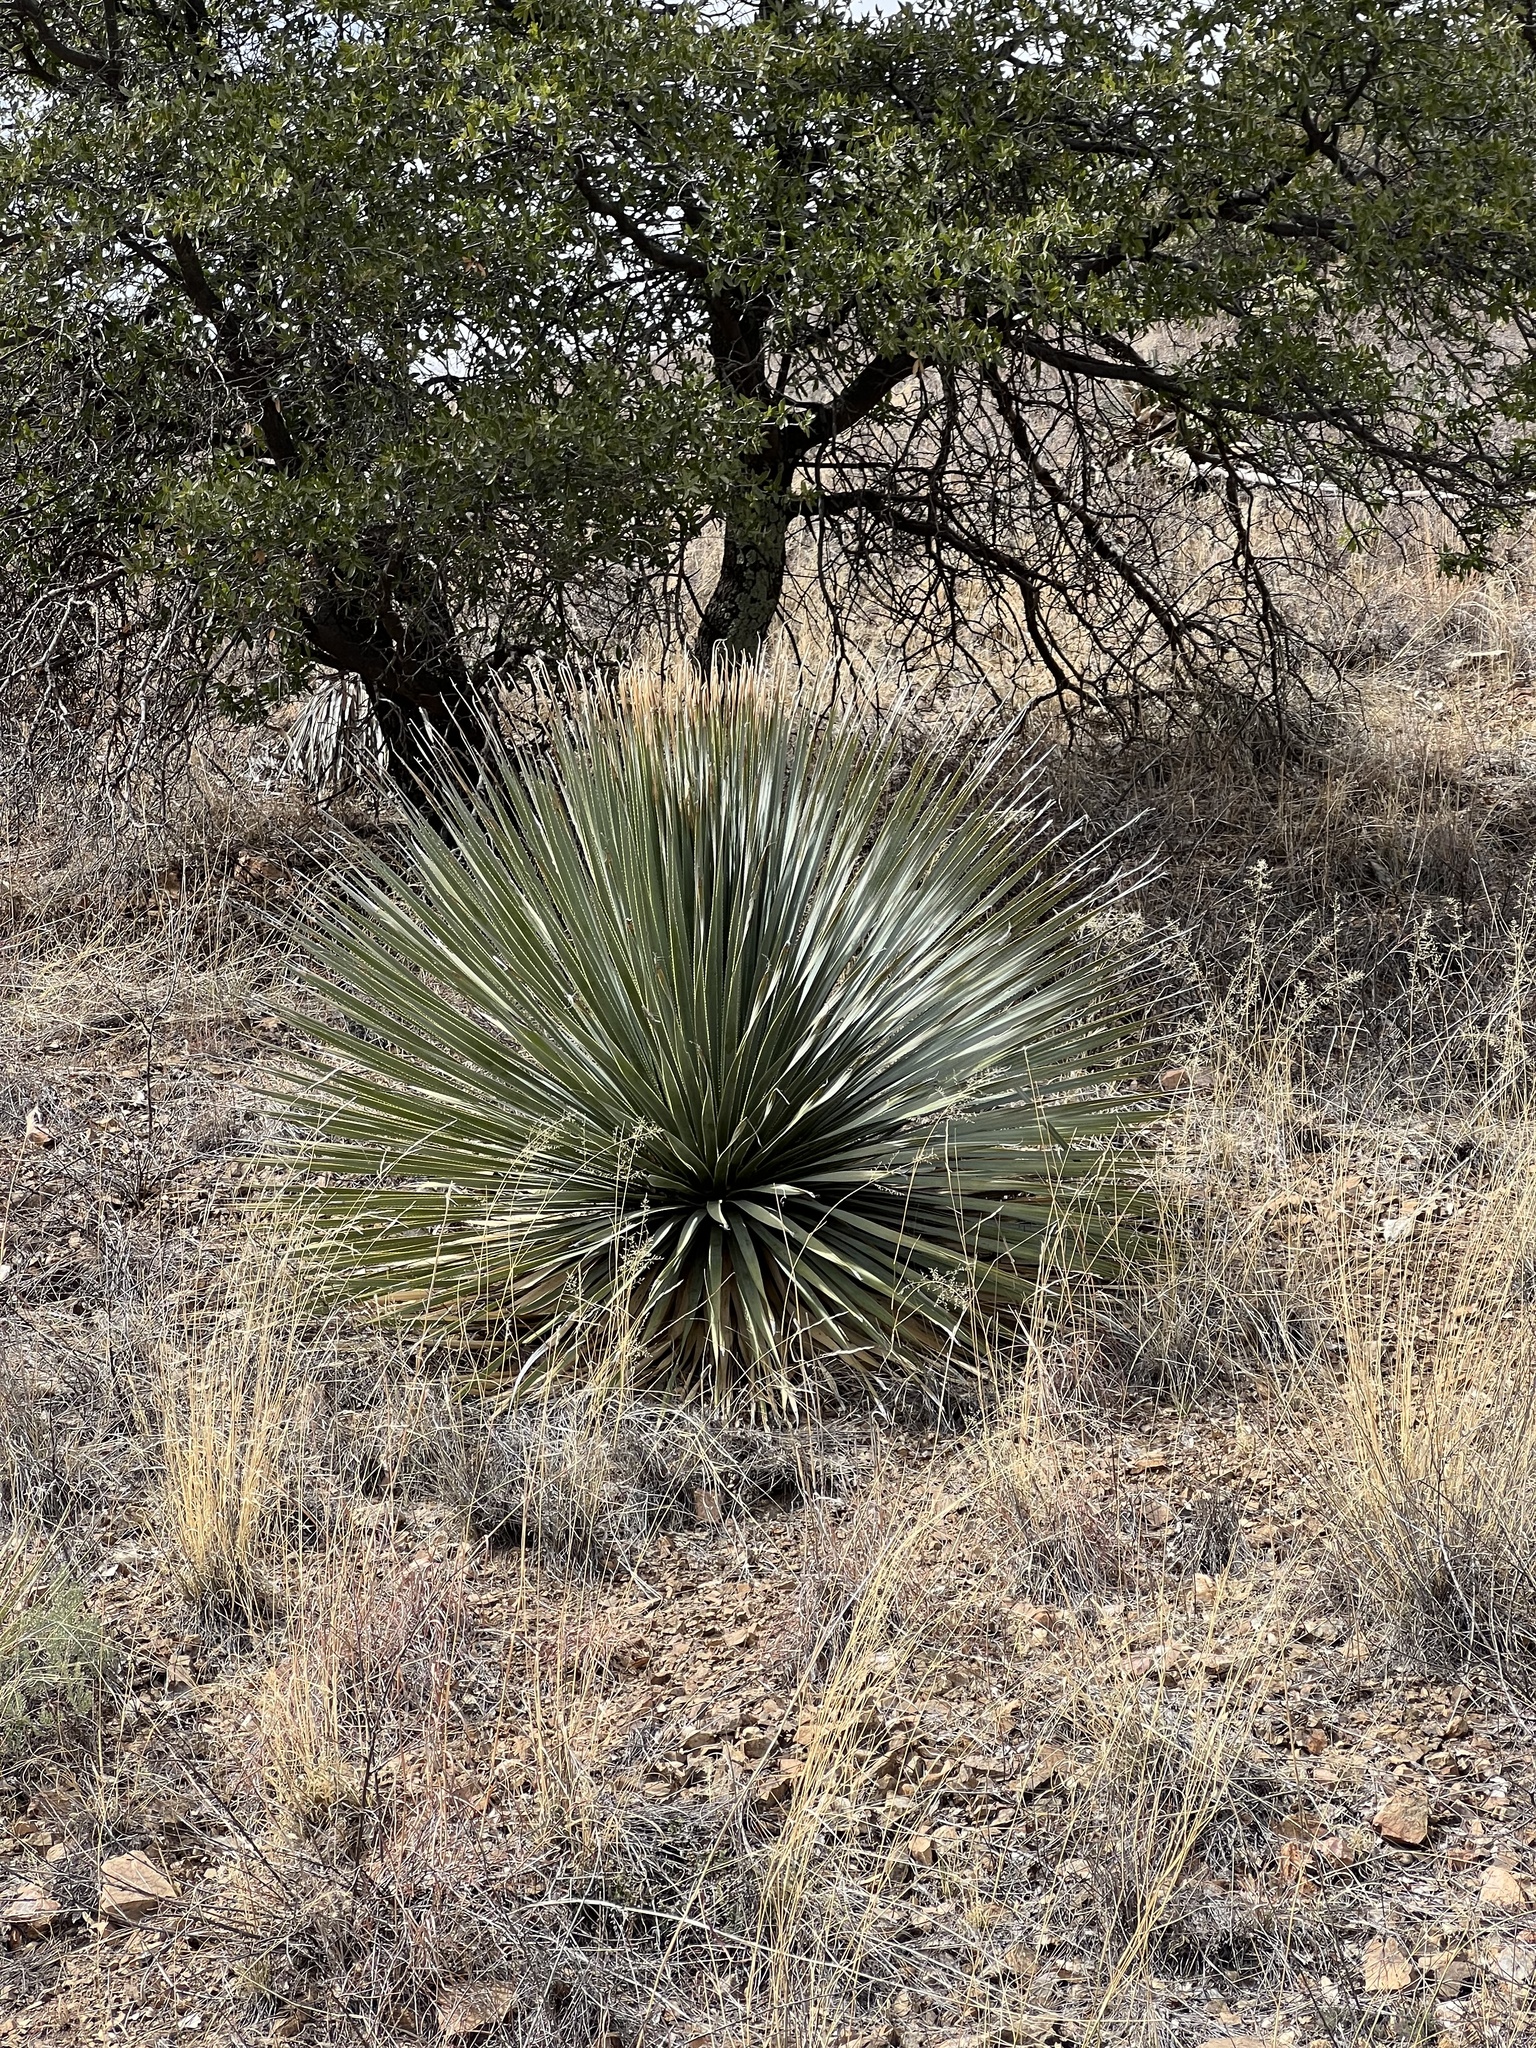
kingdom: Plantae
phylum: Tracheophyta
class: Liliopsida
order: Asparagales
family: Asparagaceae
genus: Dasylirion
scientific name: Dasylirion wheeleri
